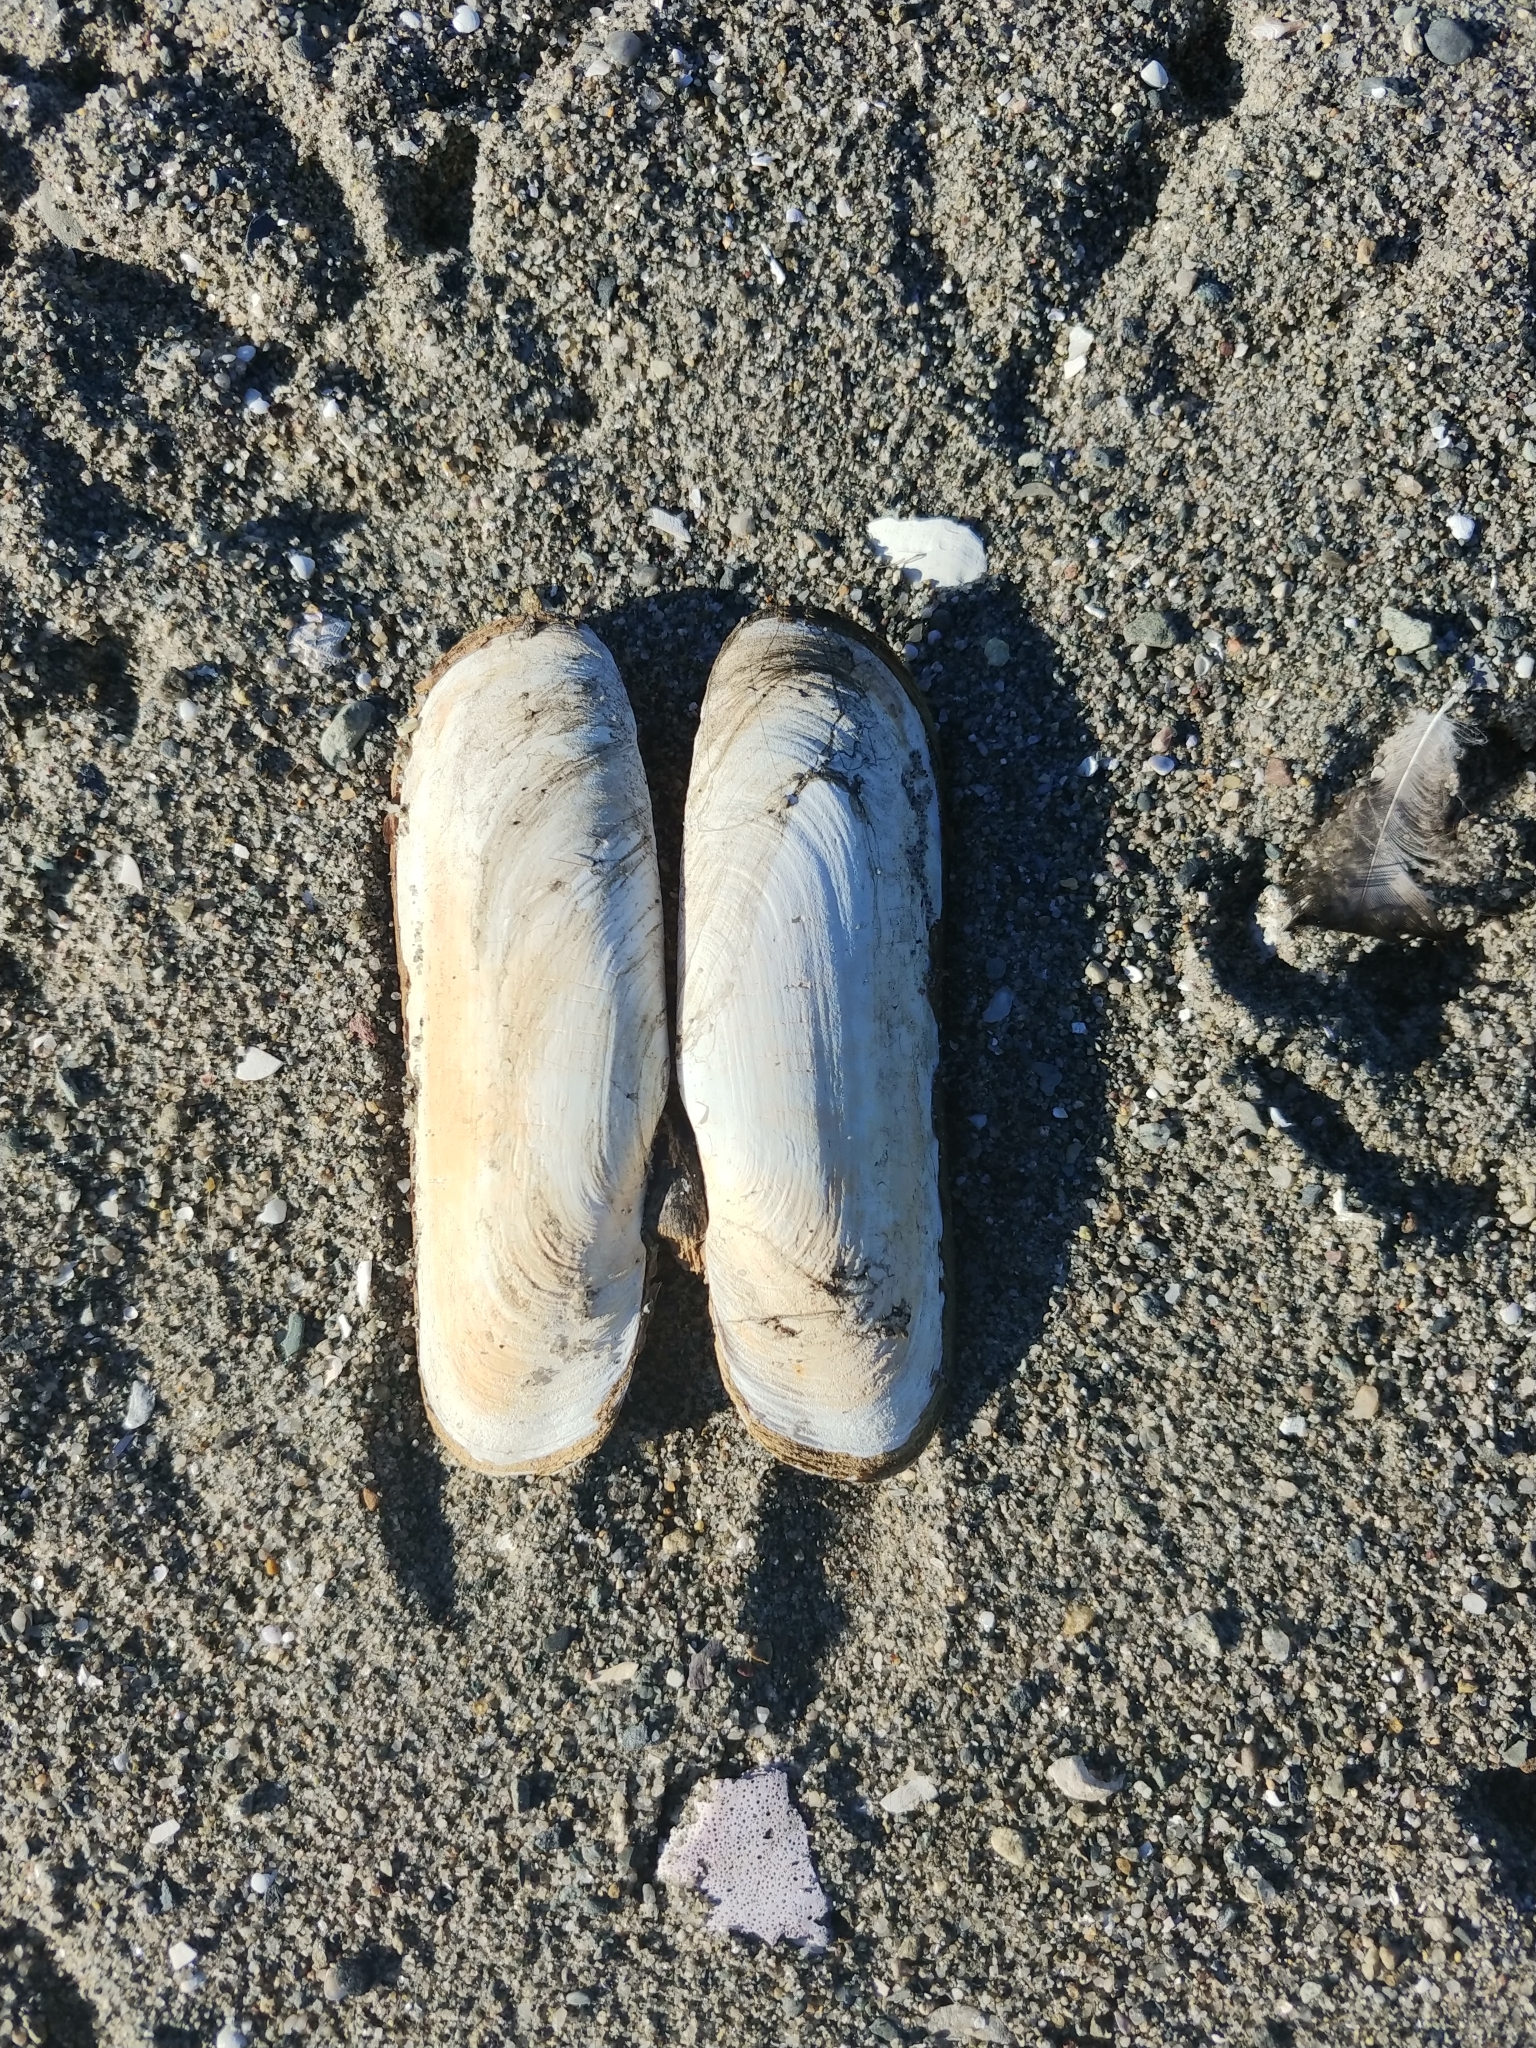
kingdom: Animalia
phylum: Mollusca
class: Bivalvia
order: Cardiida
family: Solecurtidae
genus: Tagelus
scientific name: Tagelus plebeius
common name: Stout tagelus
